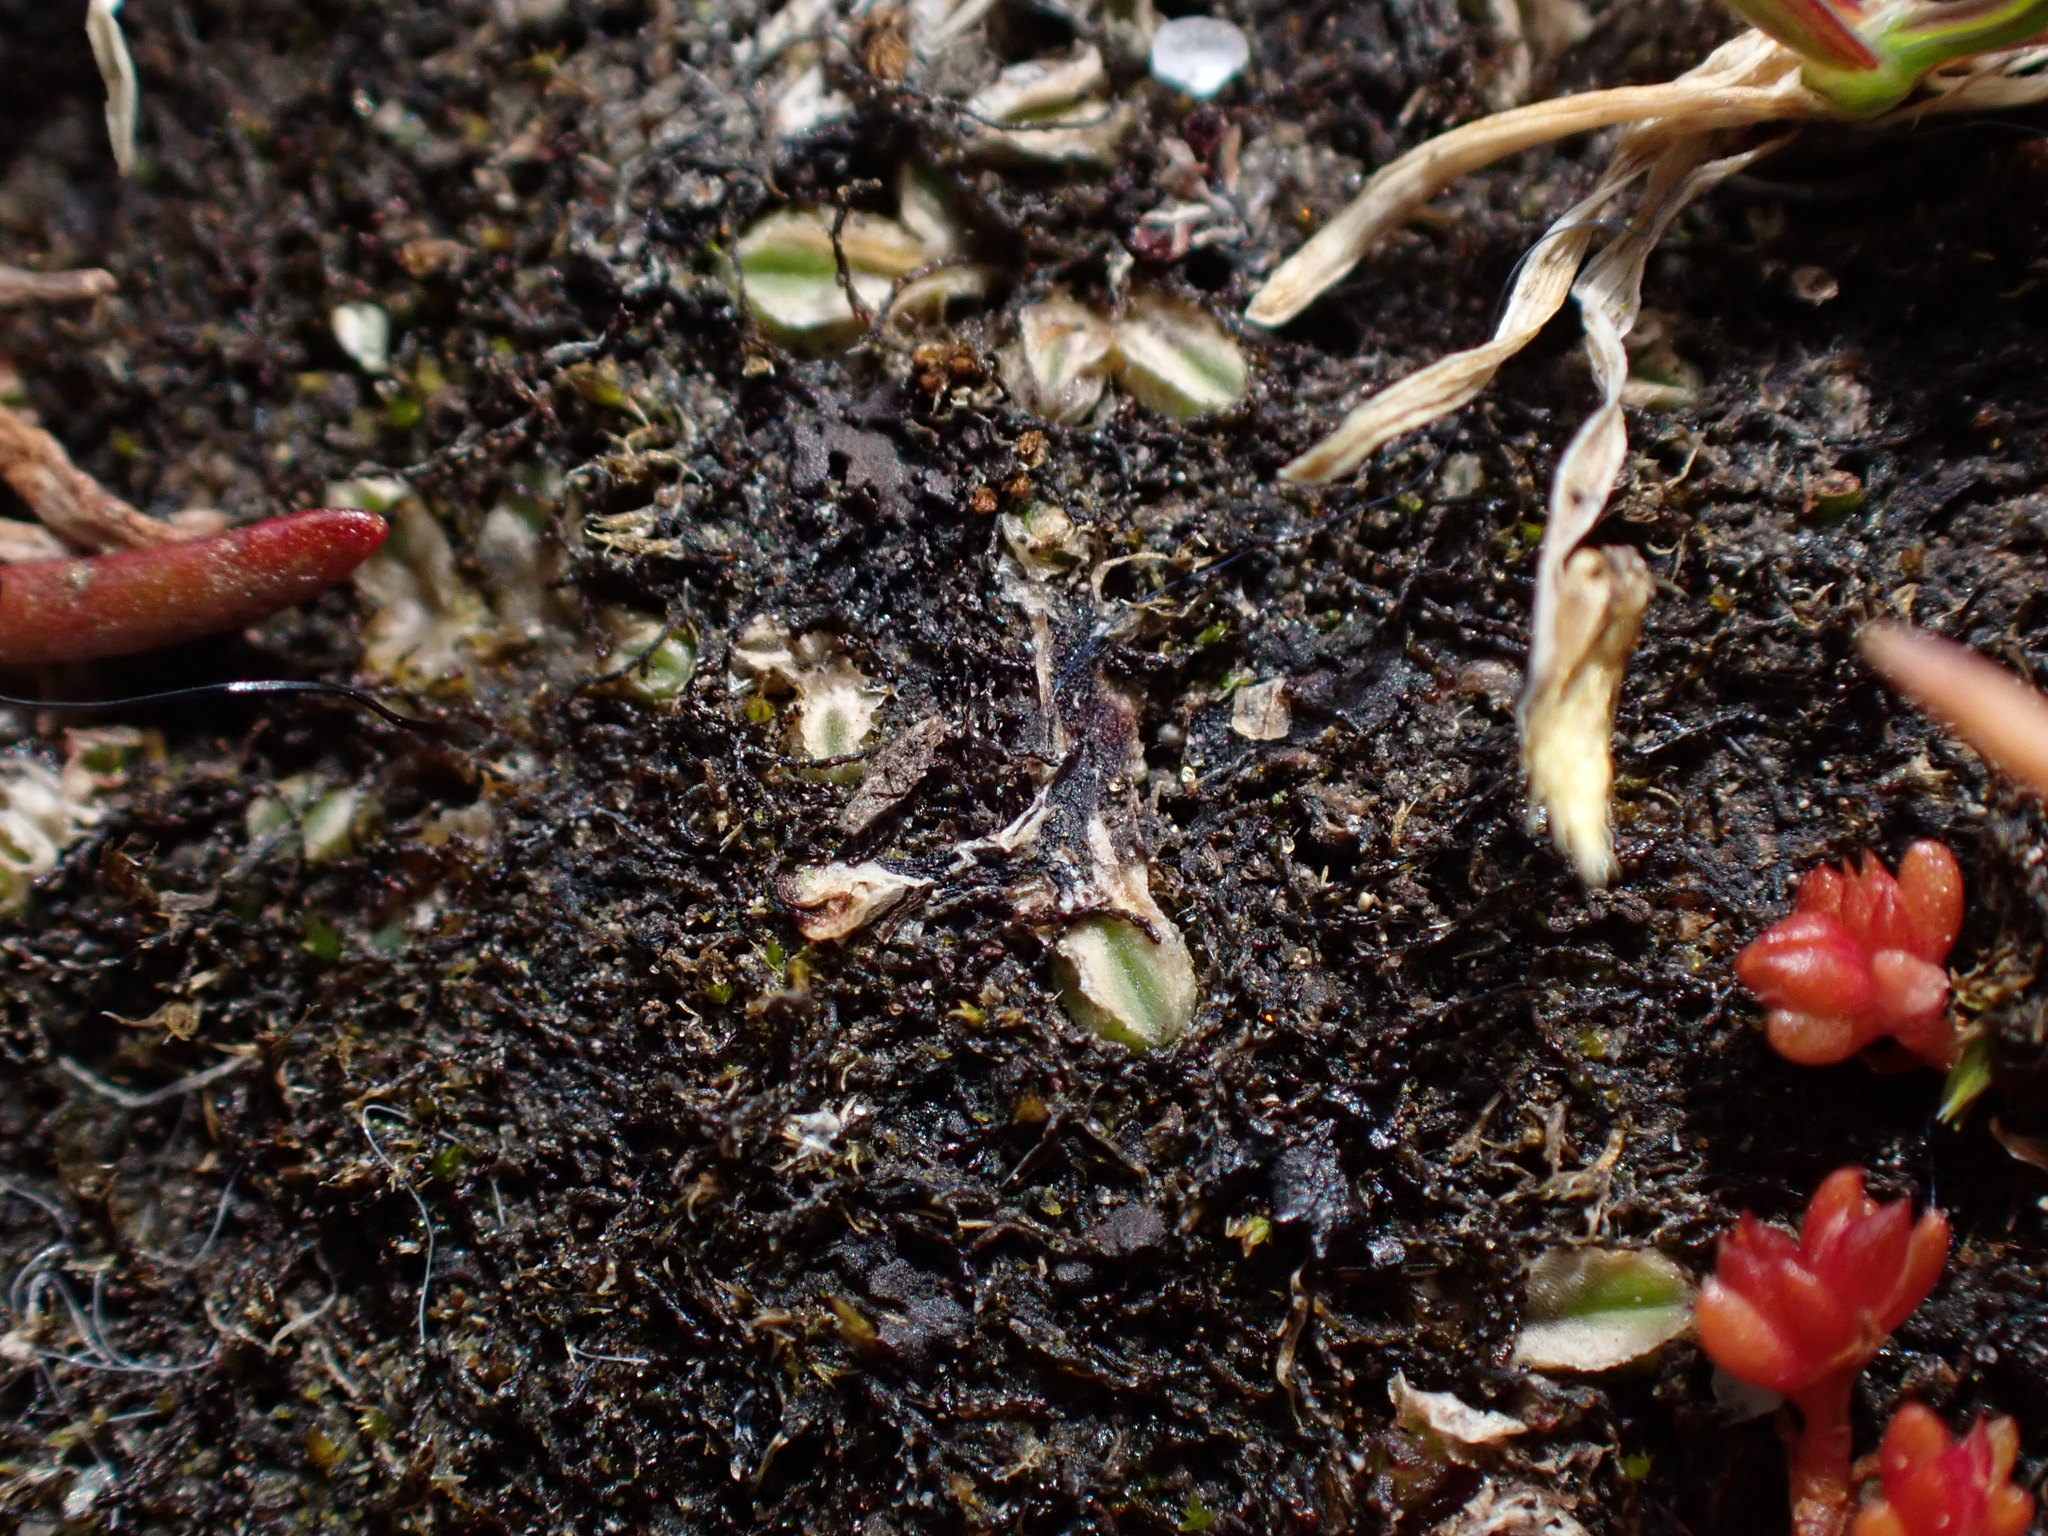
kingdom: Plantae
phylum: Marchantiophyta
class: Marchantiopsida
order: Marchantiales
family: Ricciaceae
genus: Riccia
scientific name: Riccia sorocarpa
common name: Common crystalwort
